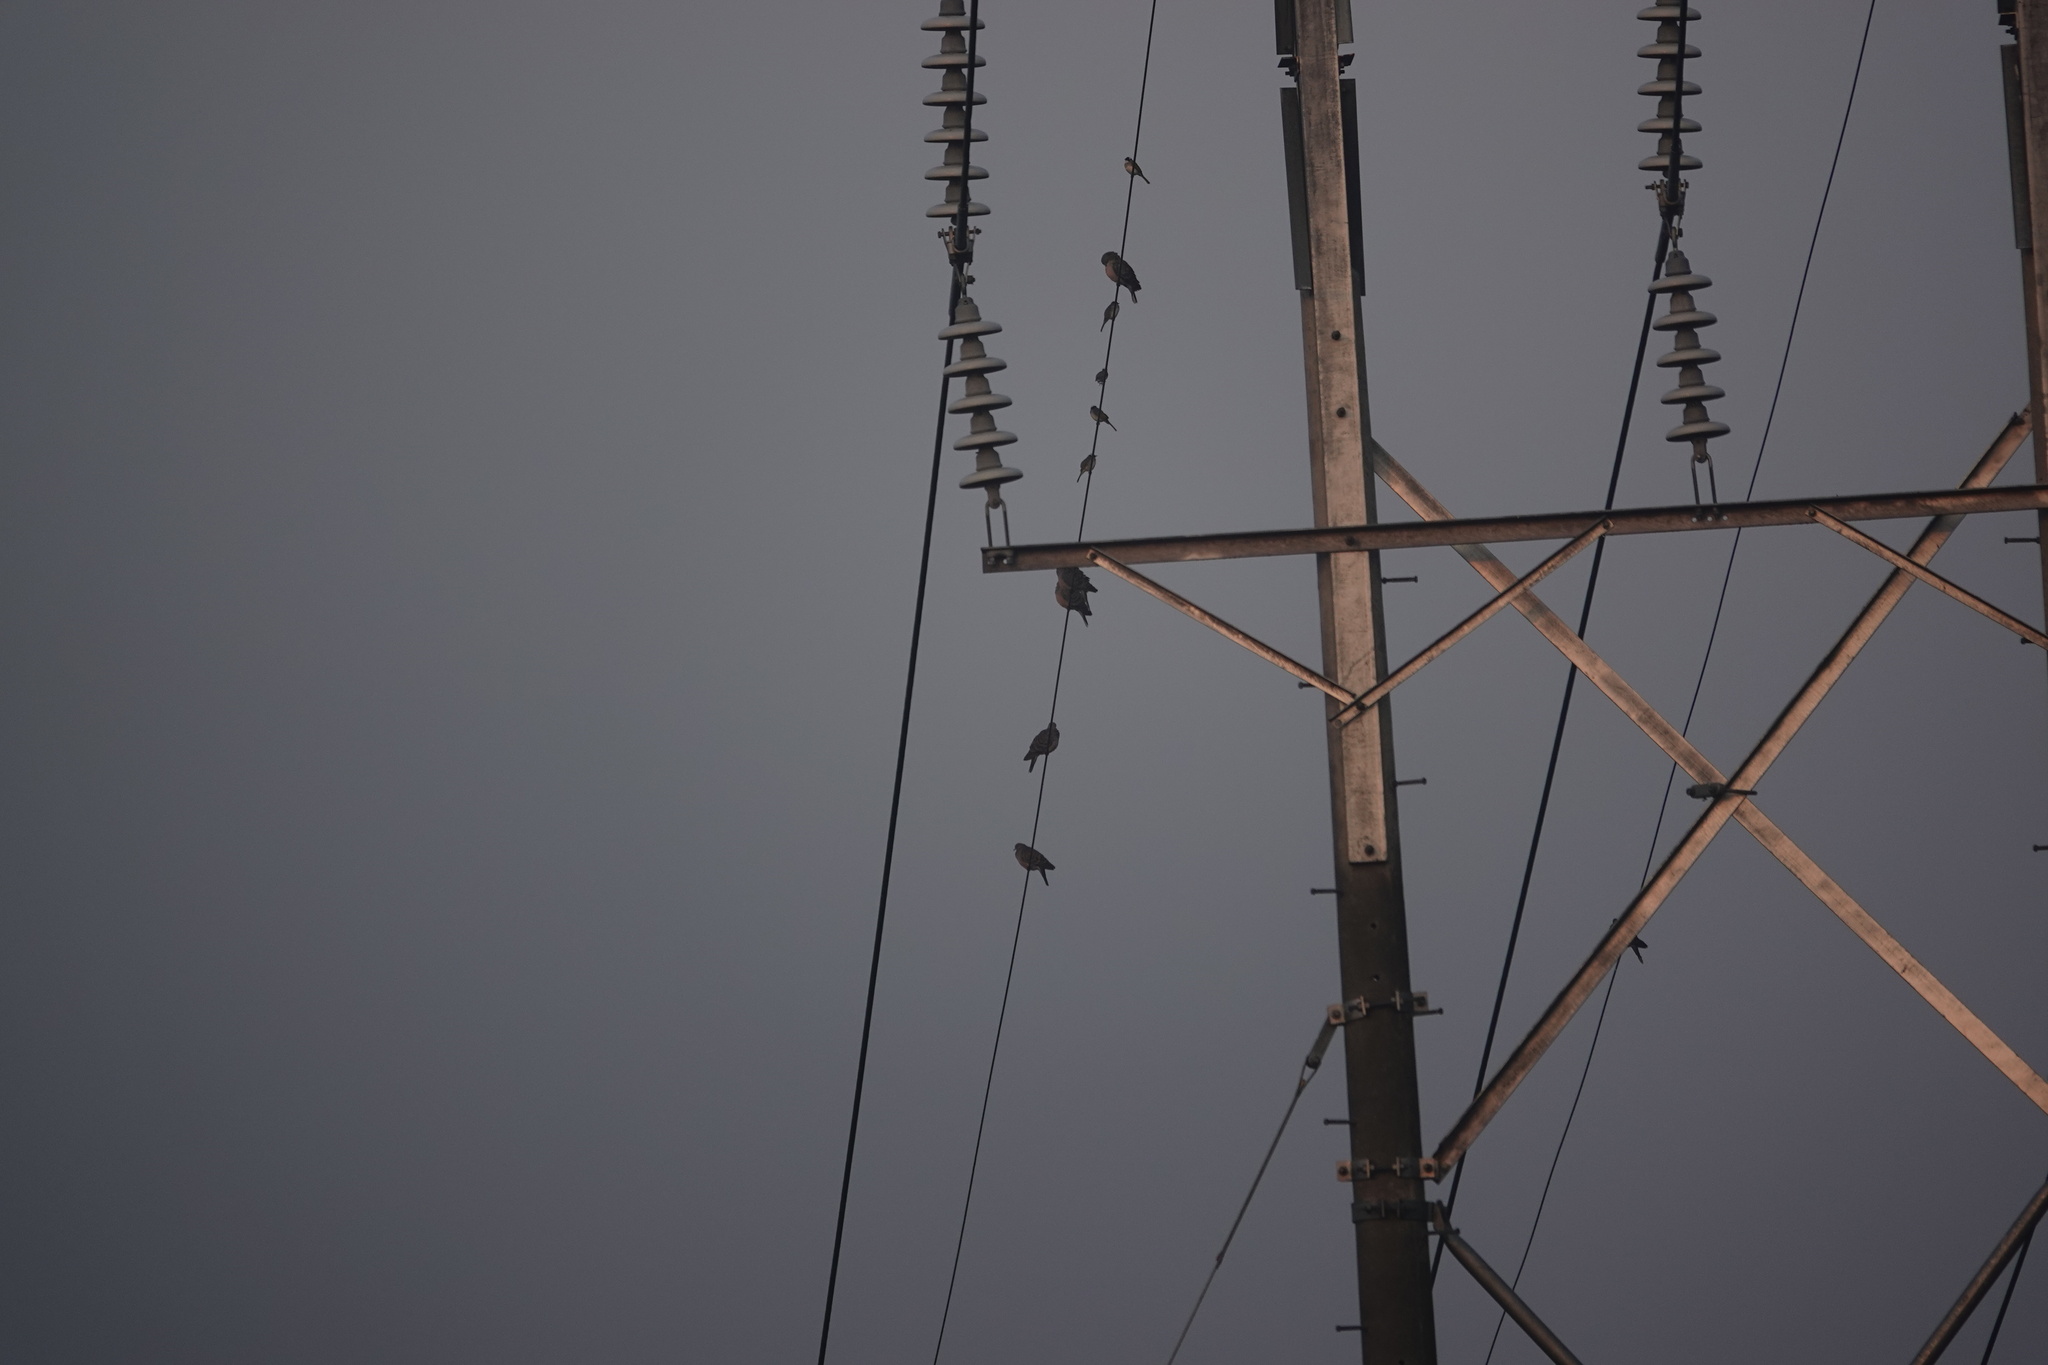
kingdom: Animalia
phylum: Chordata
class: Aves
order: Columbiformes
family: Columbidae
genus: Streptopelia
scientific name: Streptopelia orientalis
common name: Oriental turtle dove
